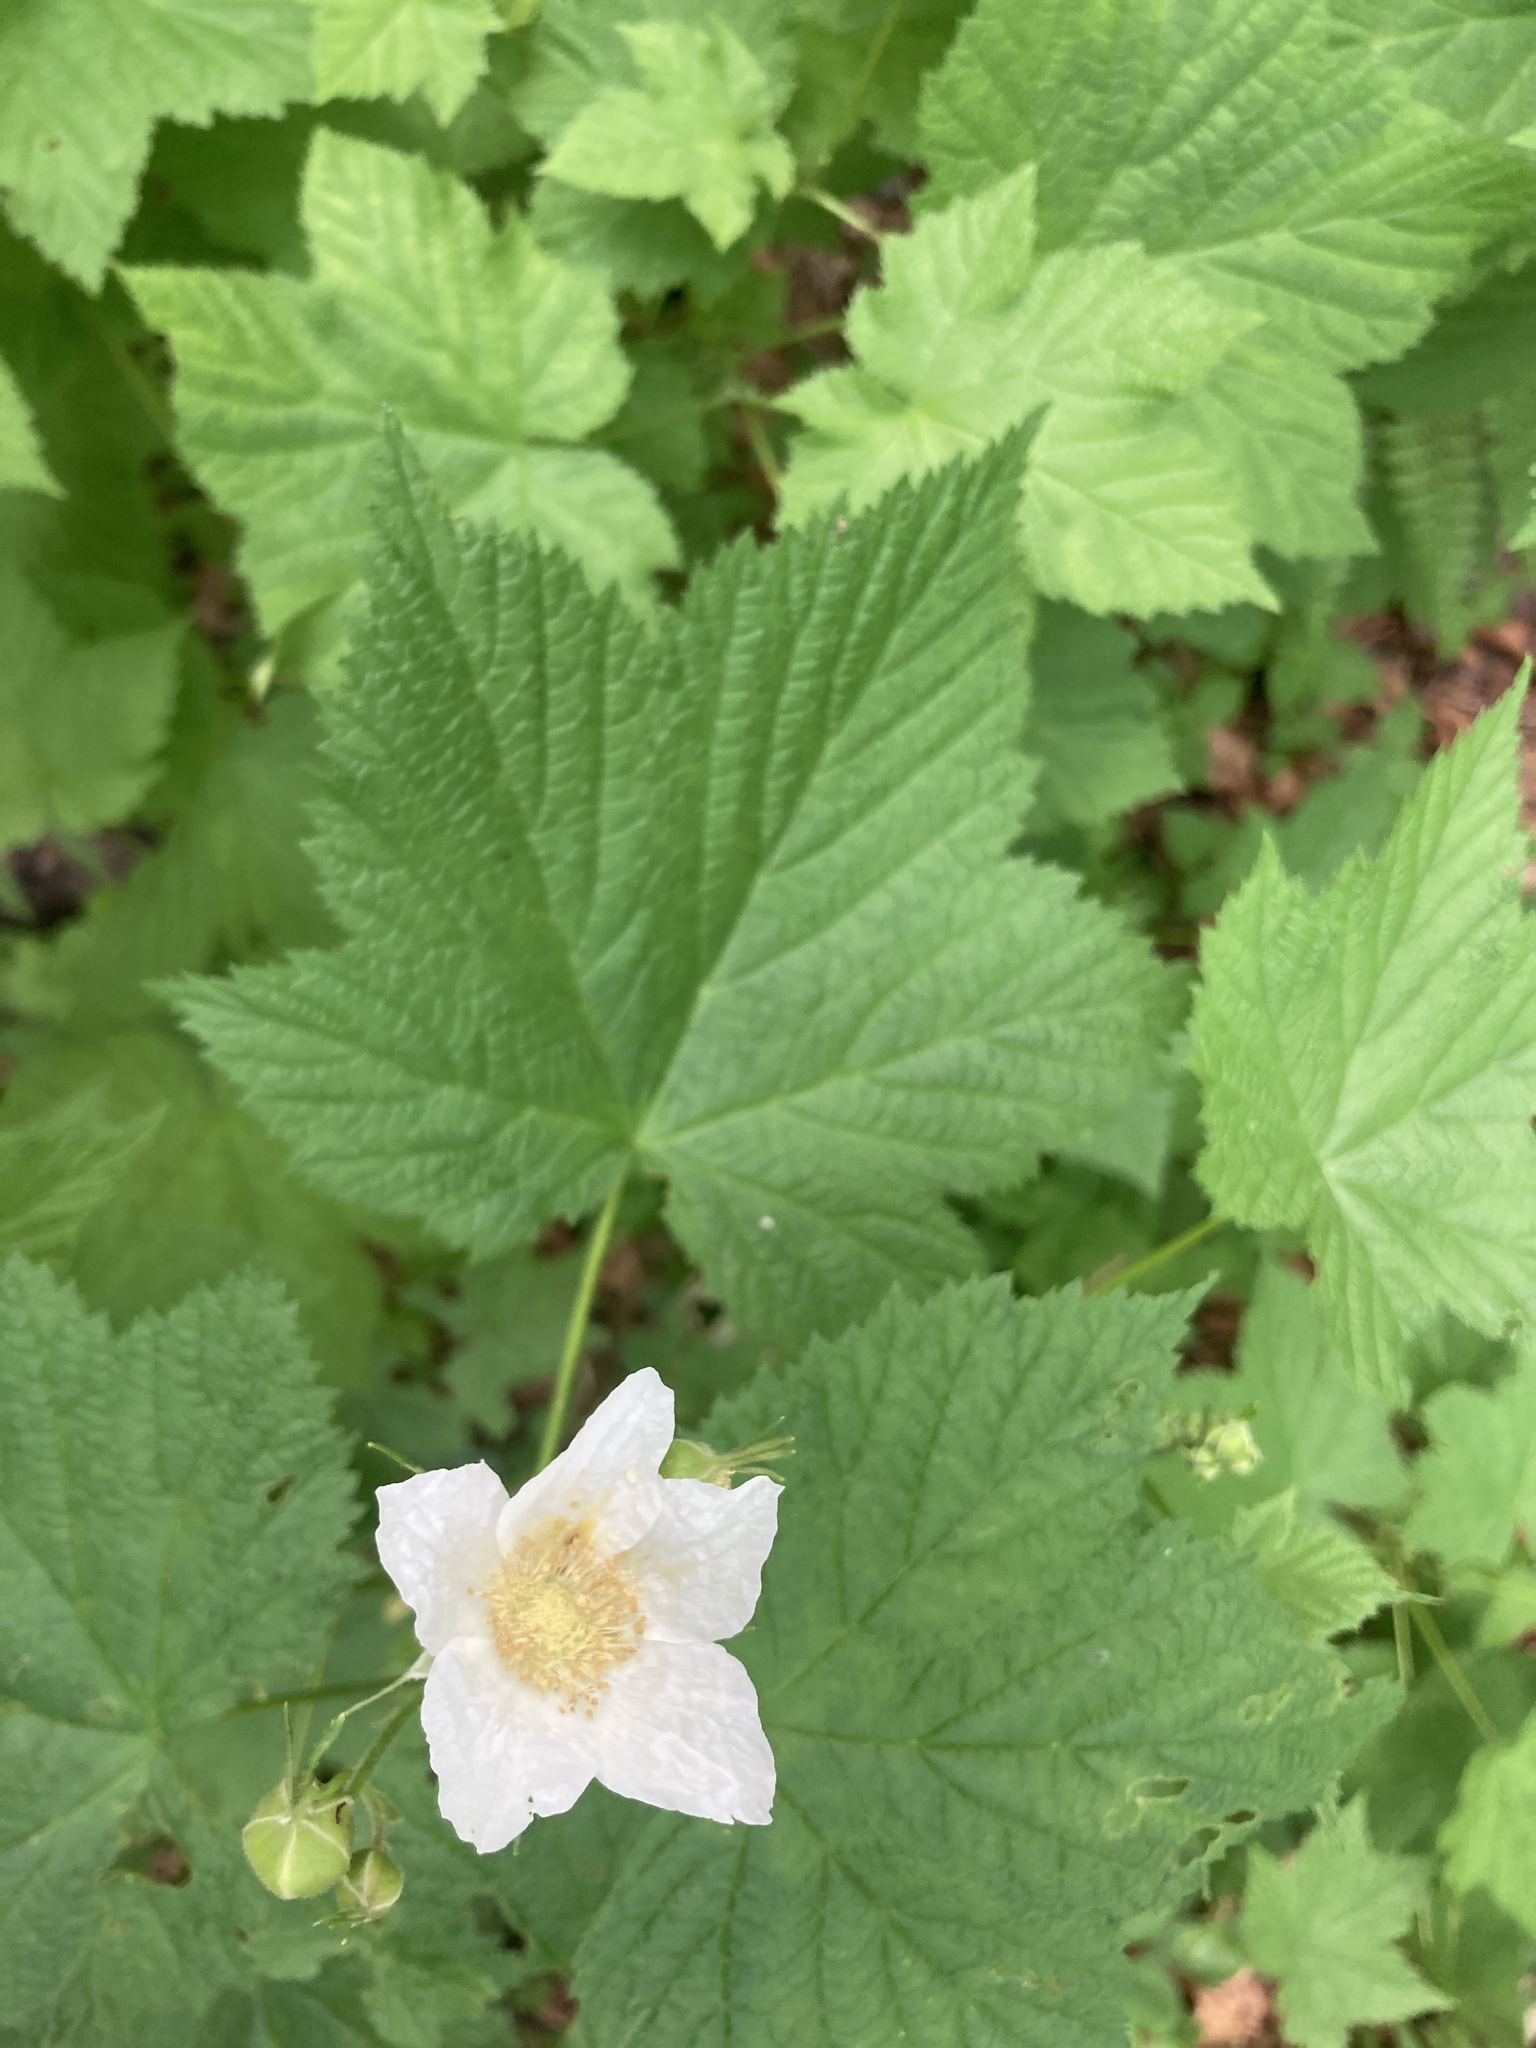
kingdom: Plantae
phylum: Tracheophyta
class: Magnoliopsida
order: Rosales
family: Rosaceae
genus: Rubus
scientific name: Rubus parviflorus
